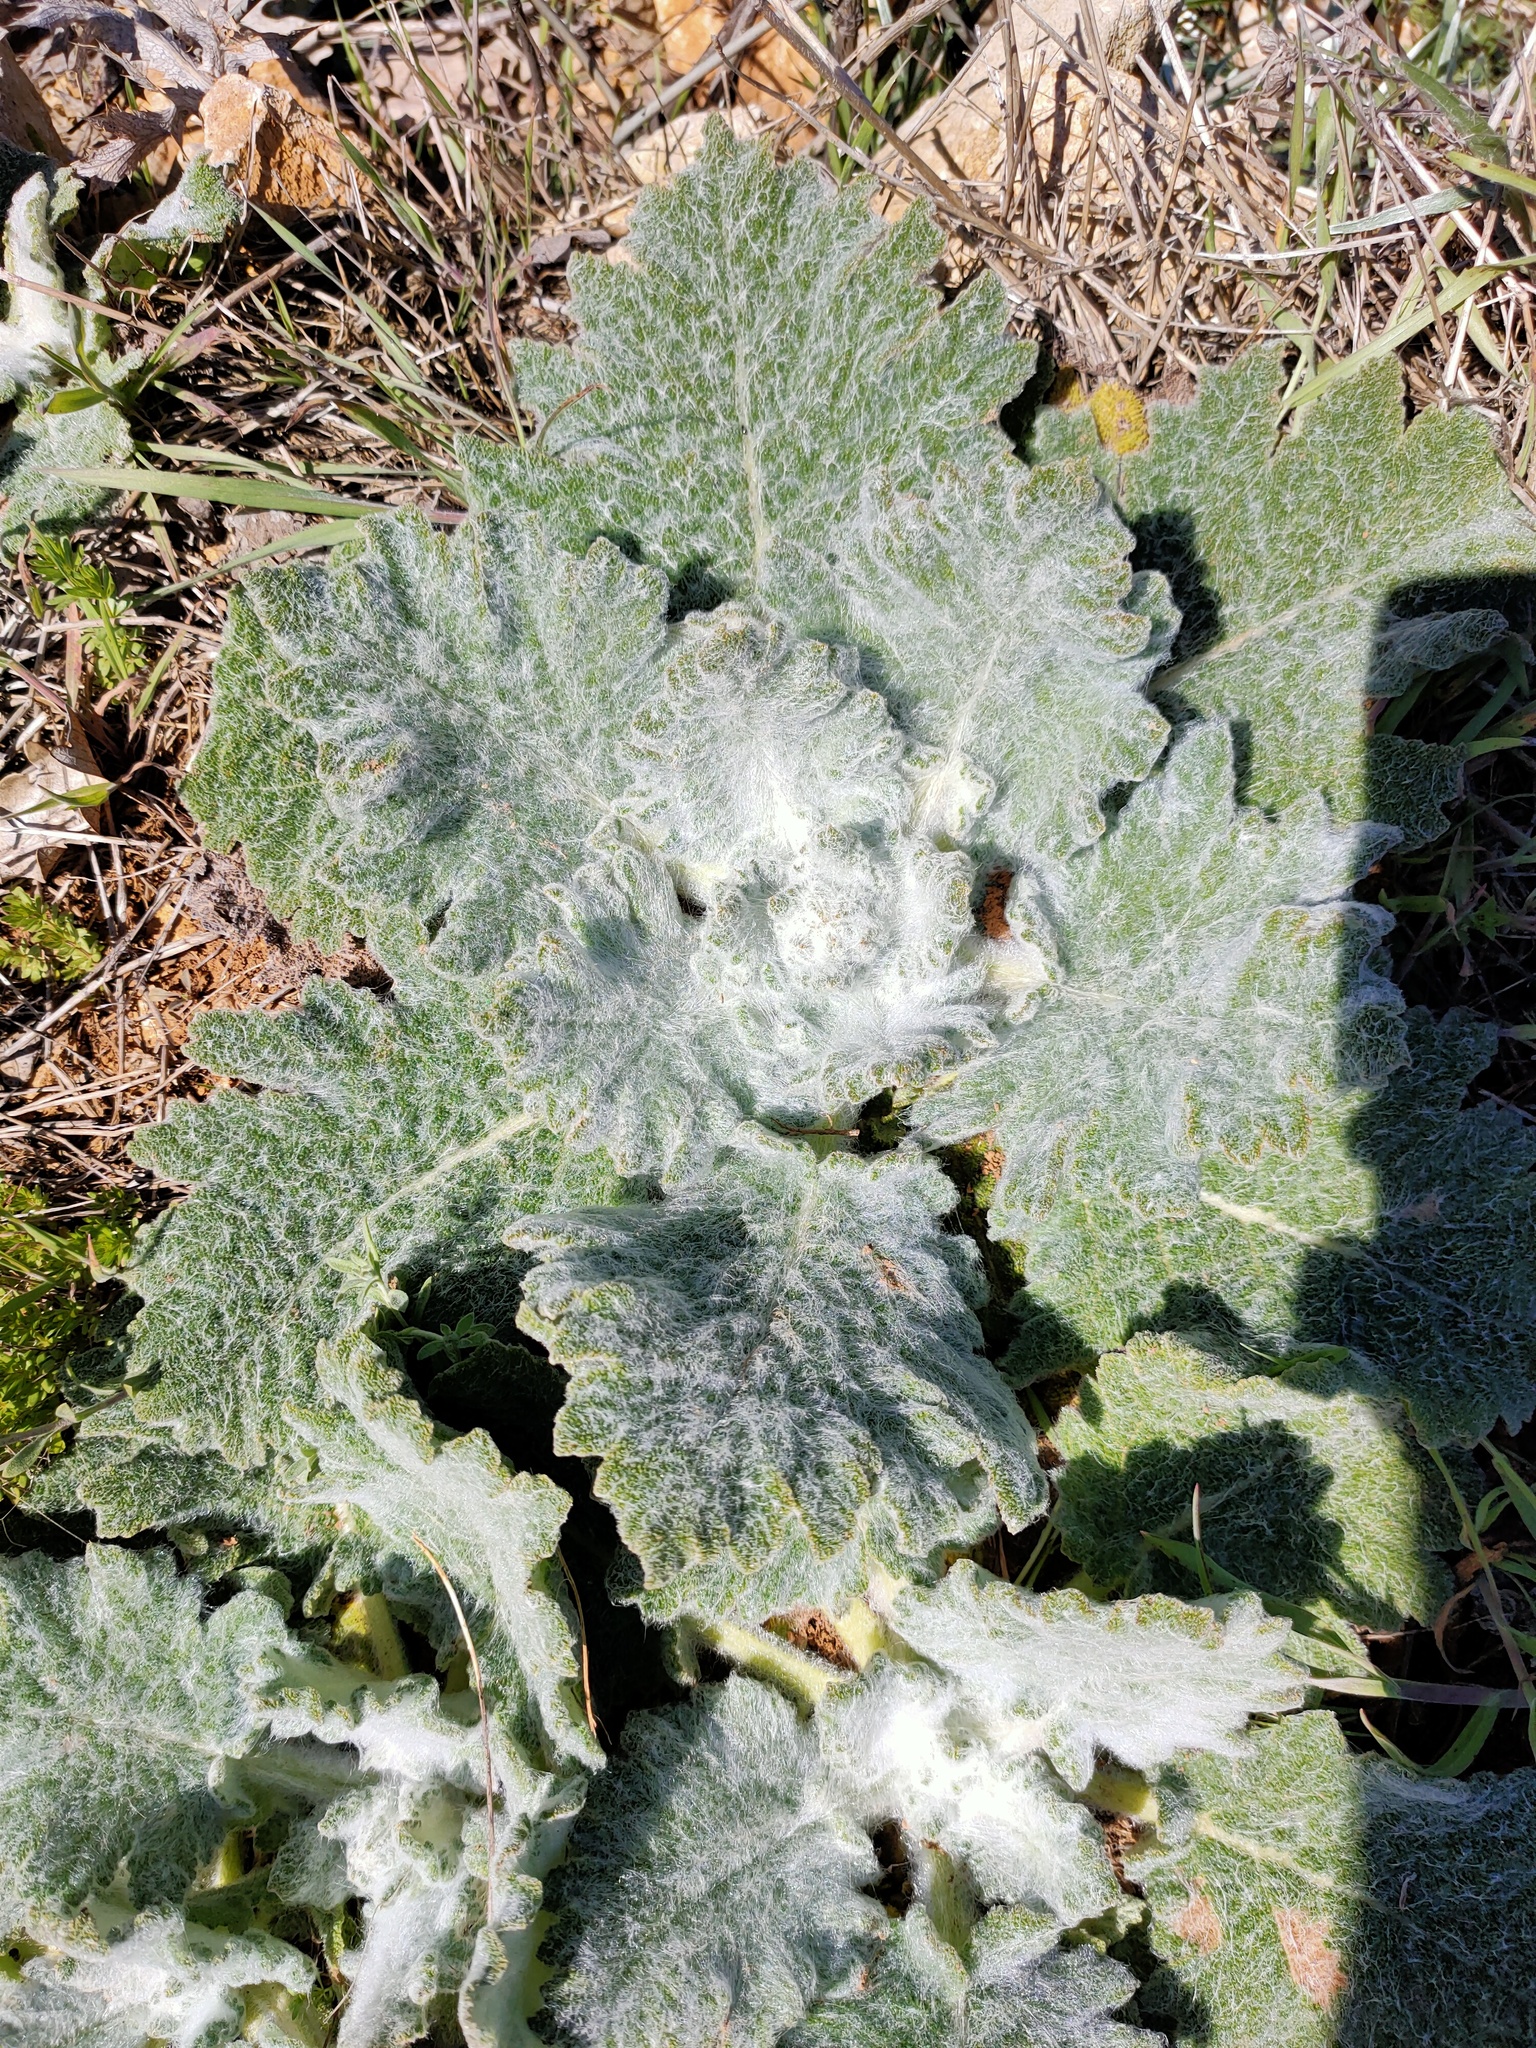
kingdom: Plantae
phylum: Tracheophyta
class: Magnoliopsida
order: Lamiales
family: Lamiaceae
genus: Salvia
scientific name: Salvia aethiopis
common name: Mediterranean sage
